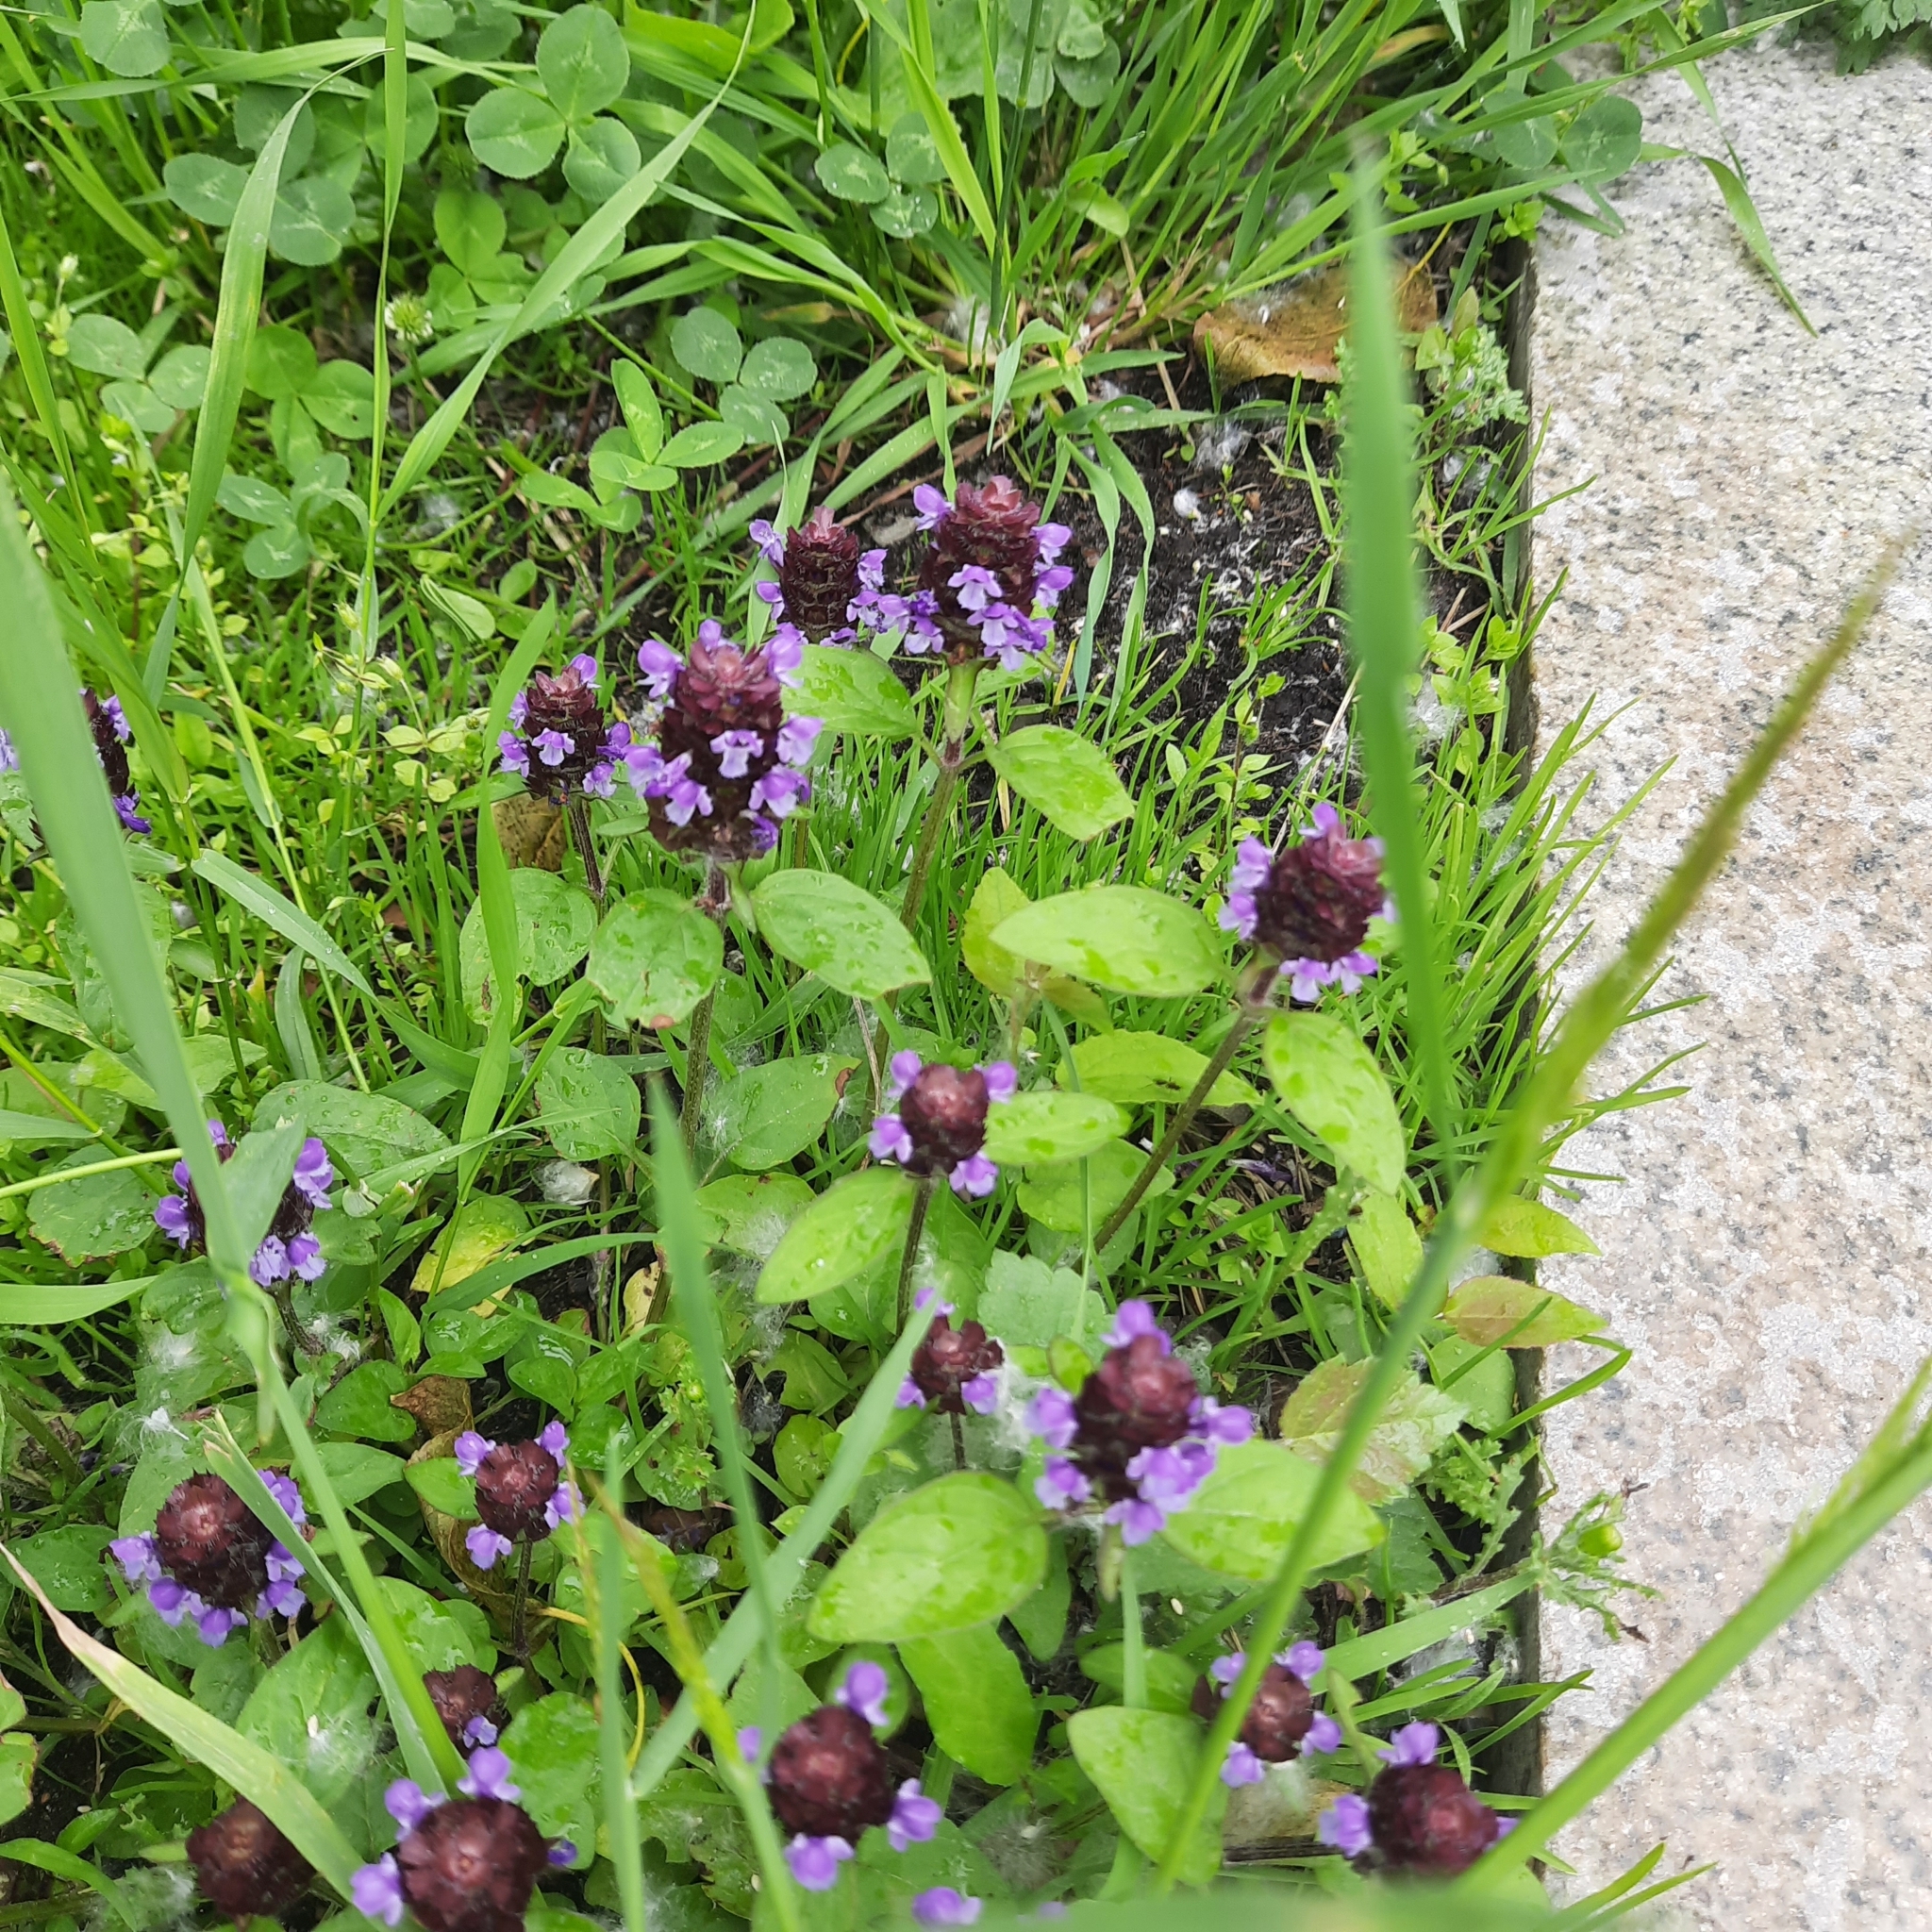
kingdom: Plantae
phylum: Tracheophyta
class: Magnoliopsida
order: Lamiales
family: Lamiaceae
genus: Prunella
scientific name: Prunella vulgaris
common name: Heal-all
